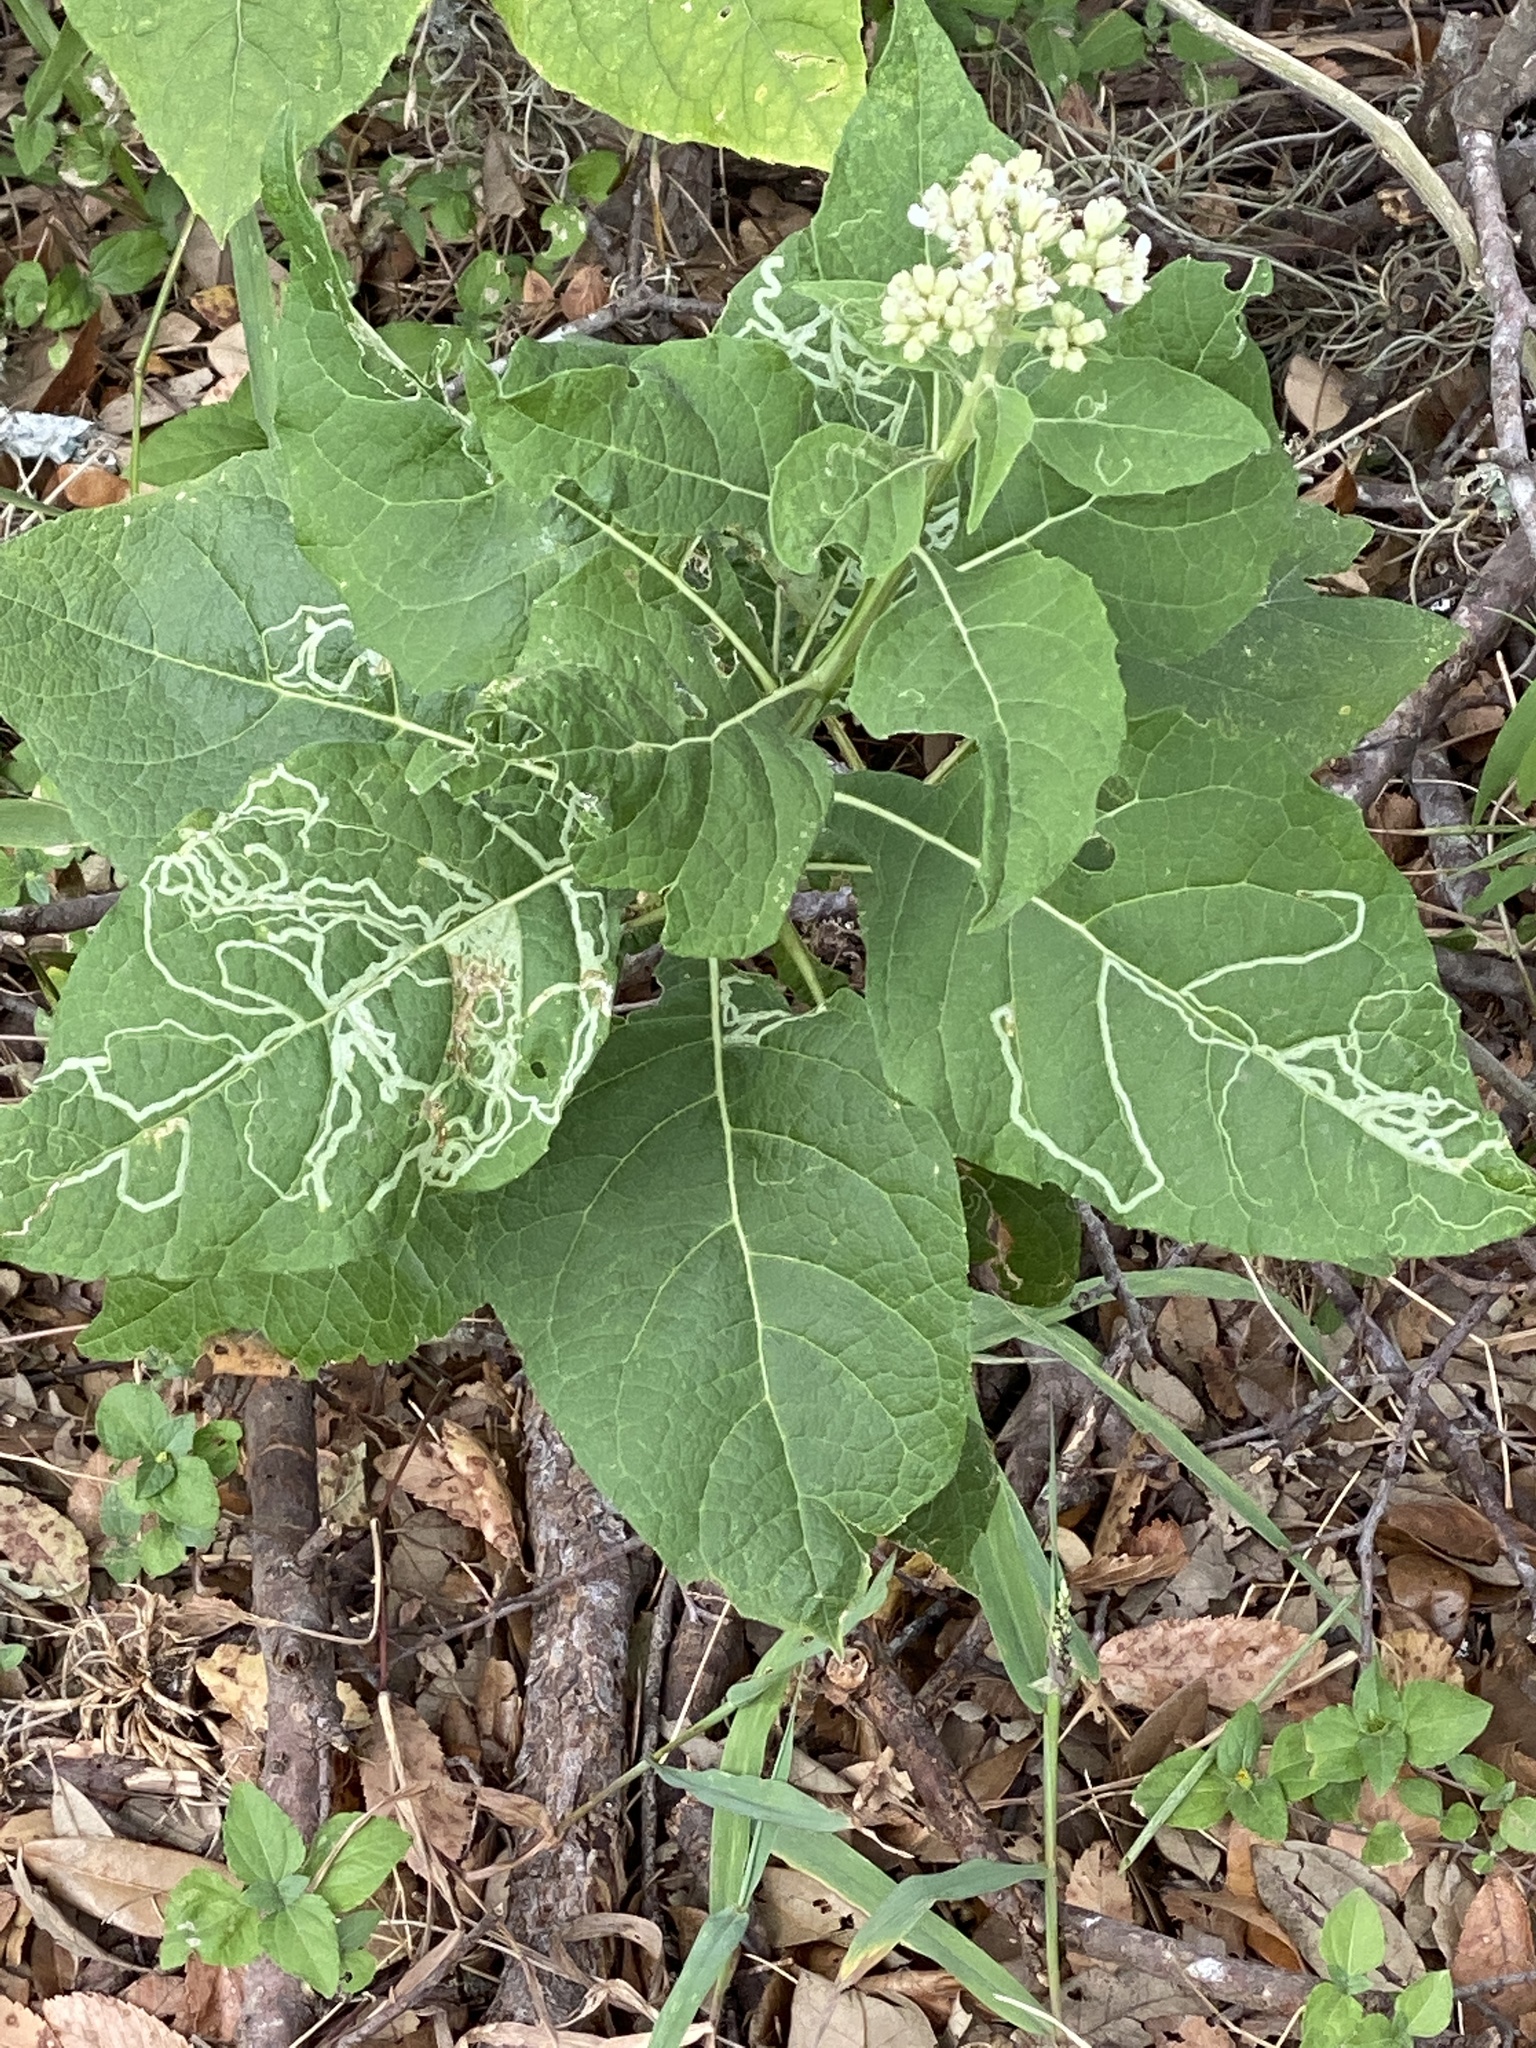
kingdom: Plantae
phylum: Tracheophyta
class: Magnoliopsida
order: Asterales
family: Asteraceae
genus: Verbesina
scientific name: Verbesina virginica
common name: Frostweed
